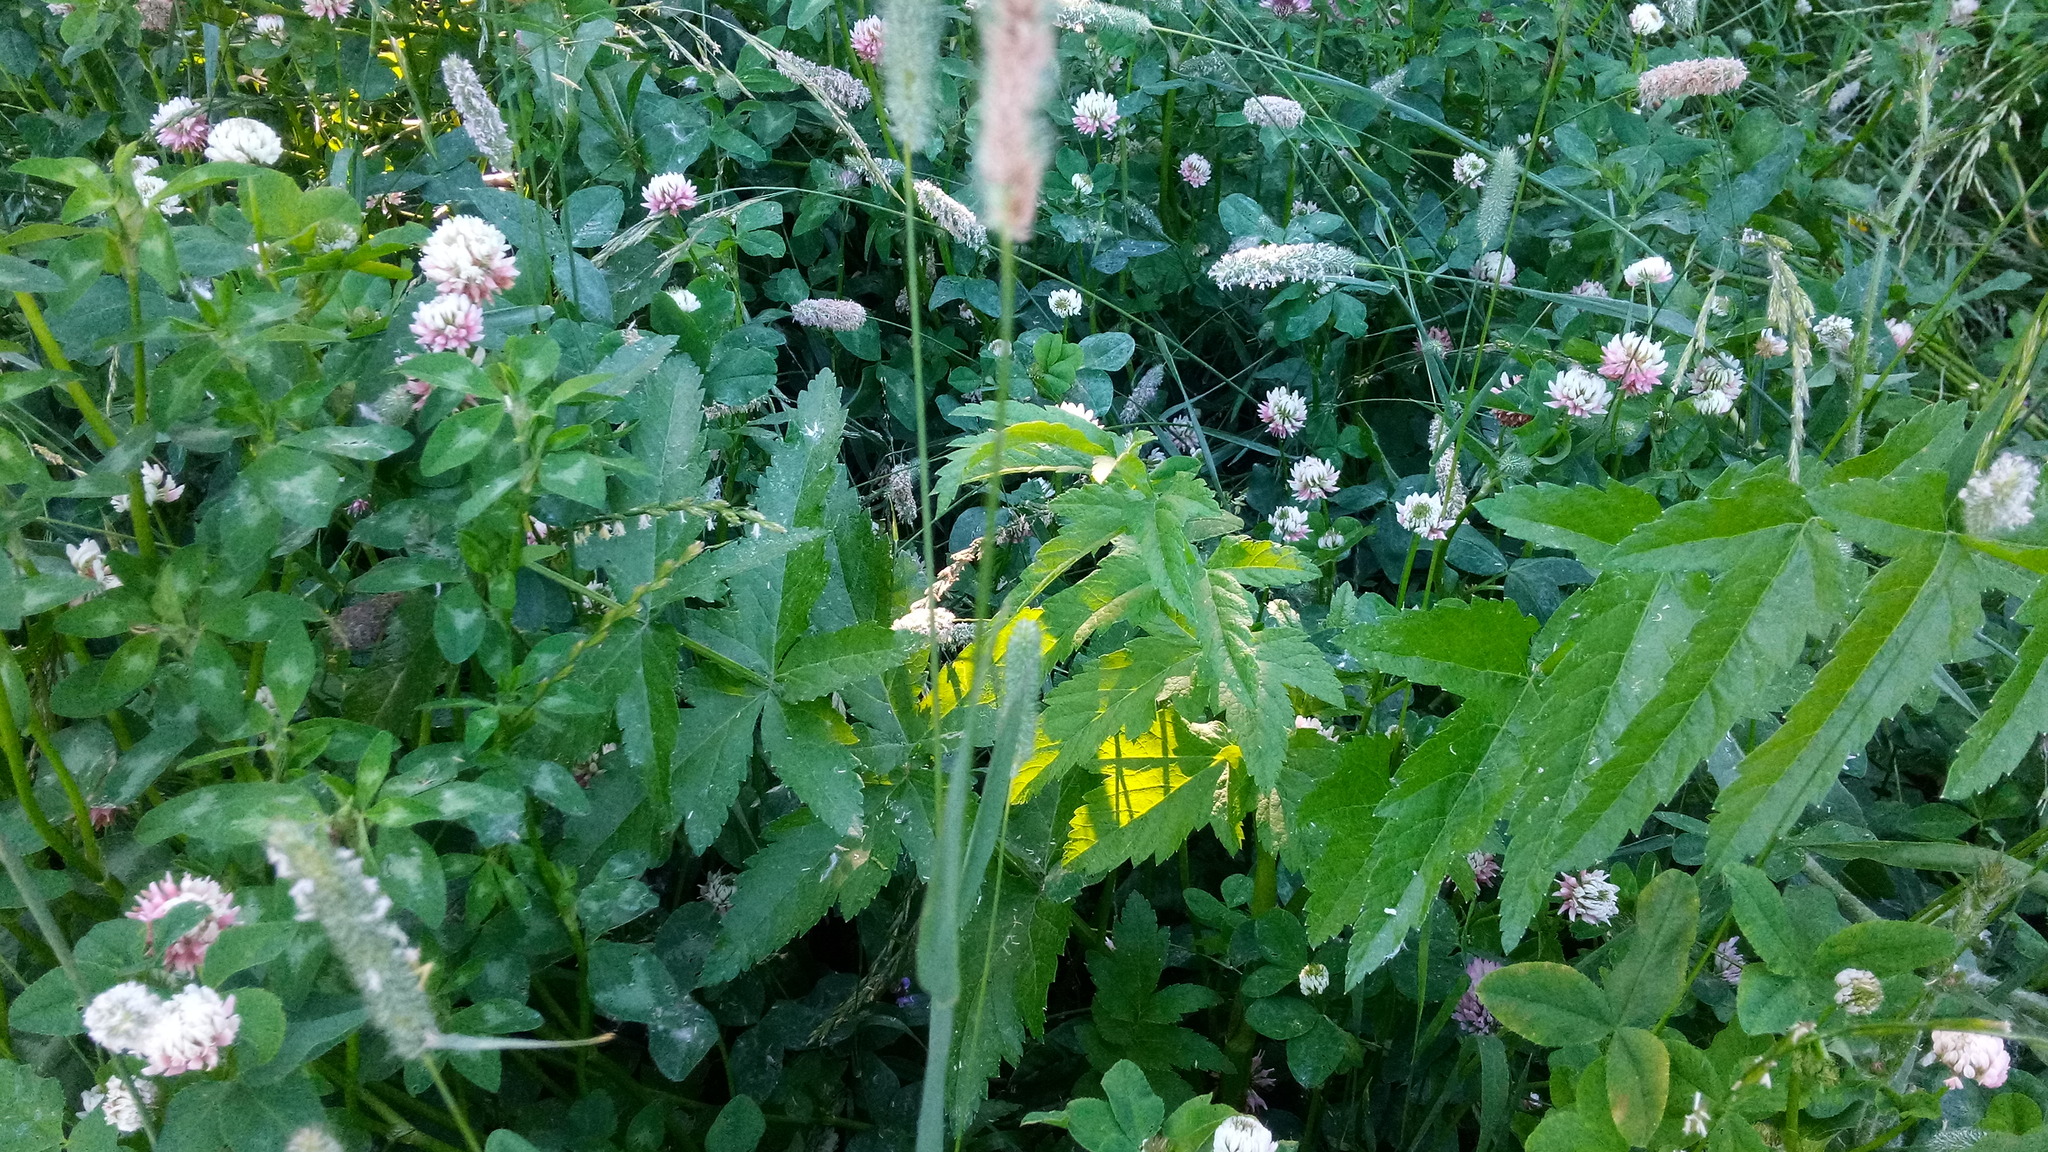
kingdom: Plantae
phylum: Tracheophyta
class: Magnoliopsida
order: Apiales
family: Apiaceae
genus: Pastinaca
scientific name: Pastinaca sativa
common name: Wild parsnip
